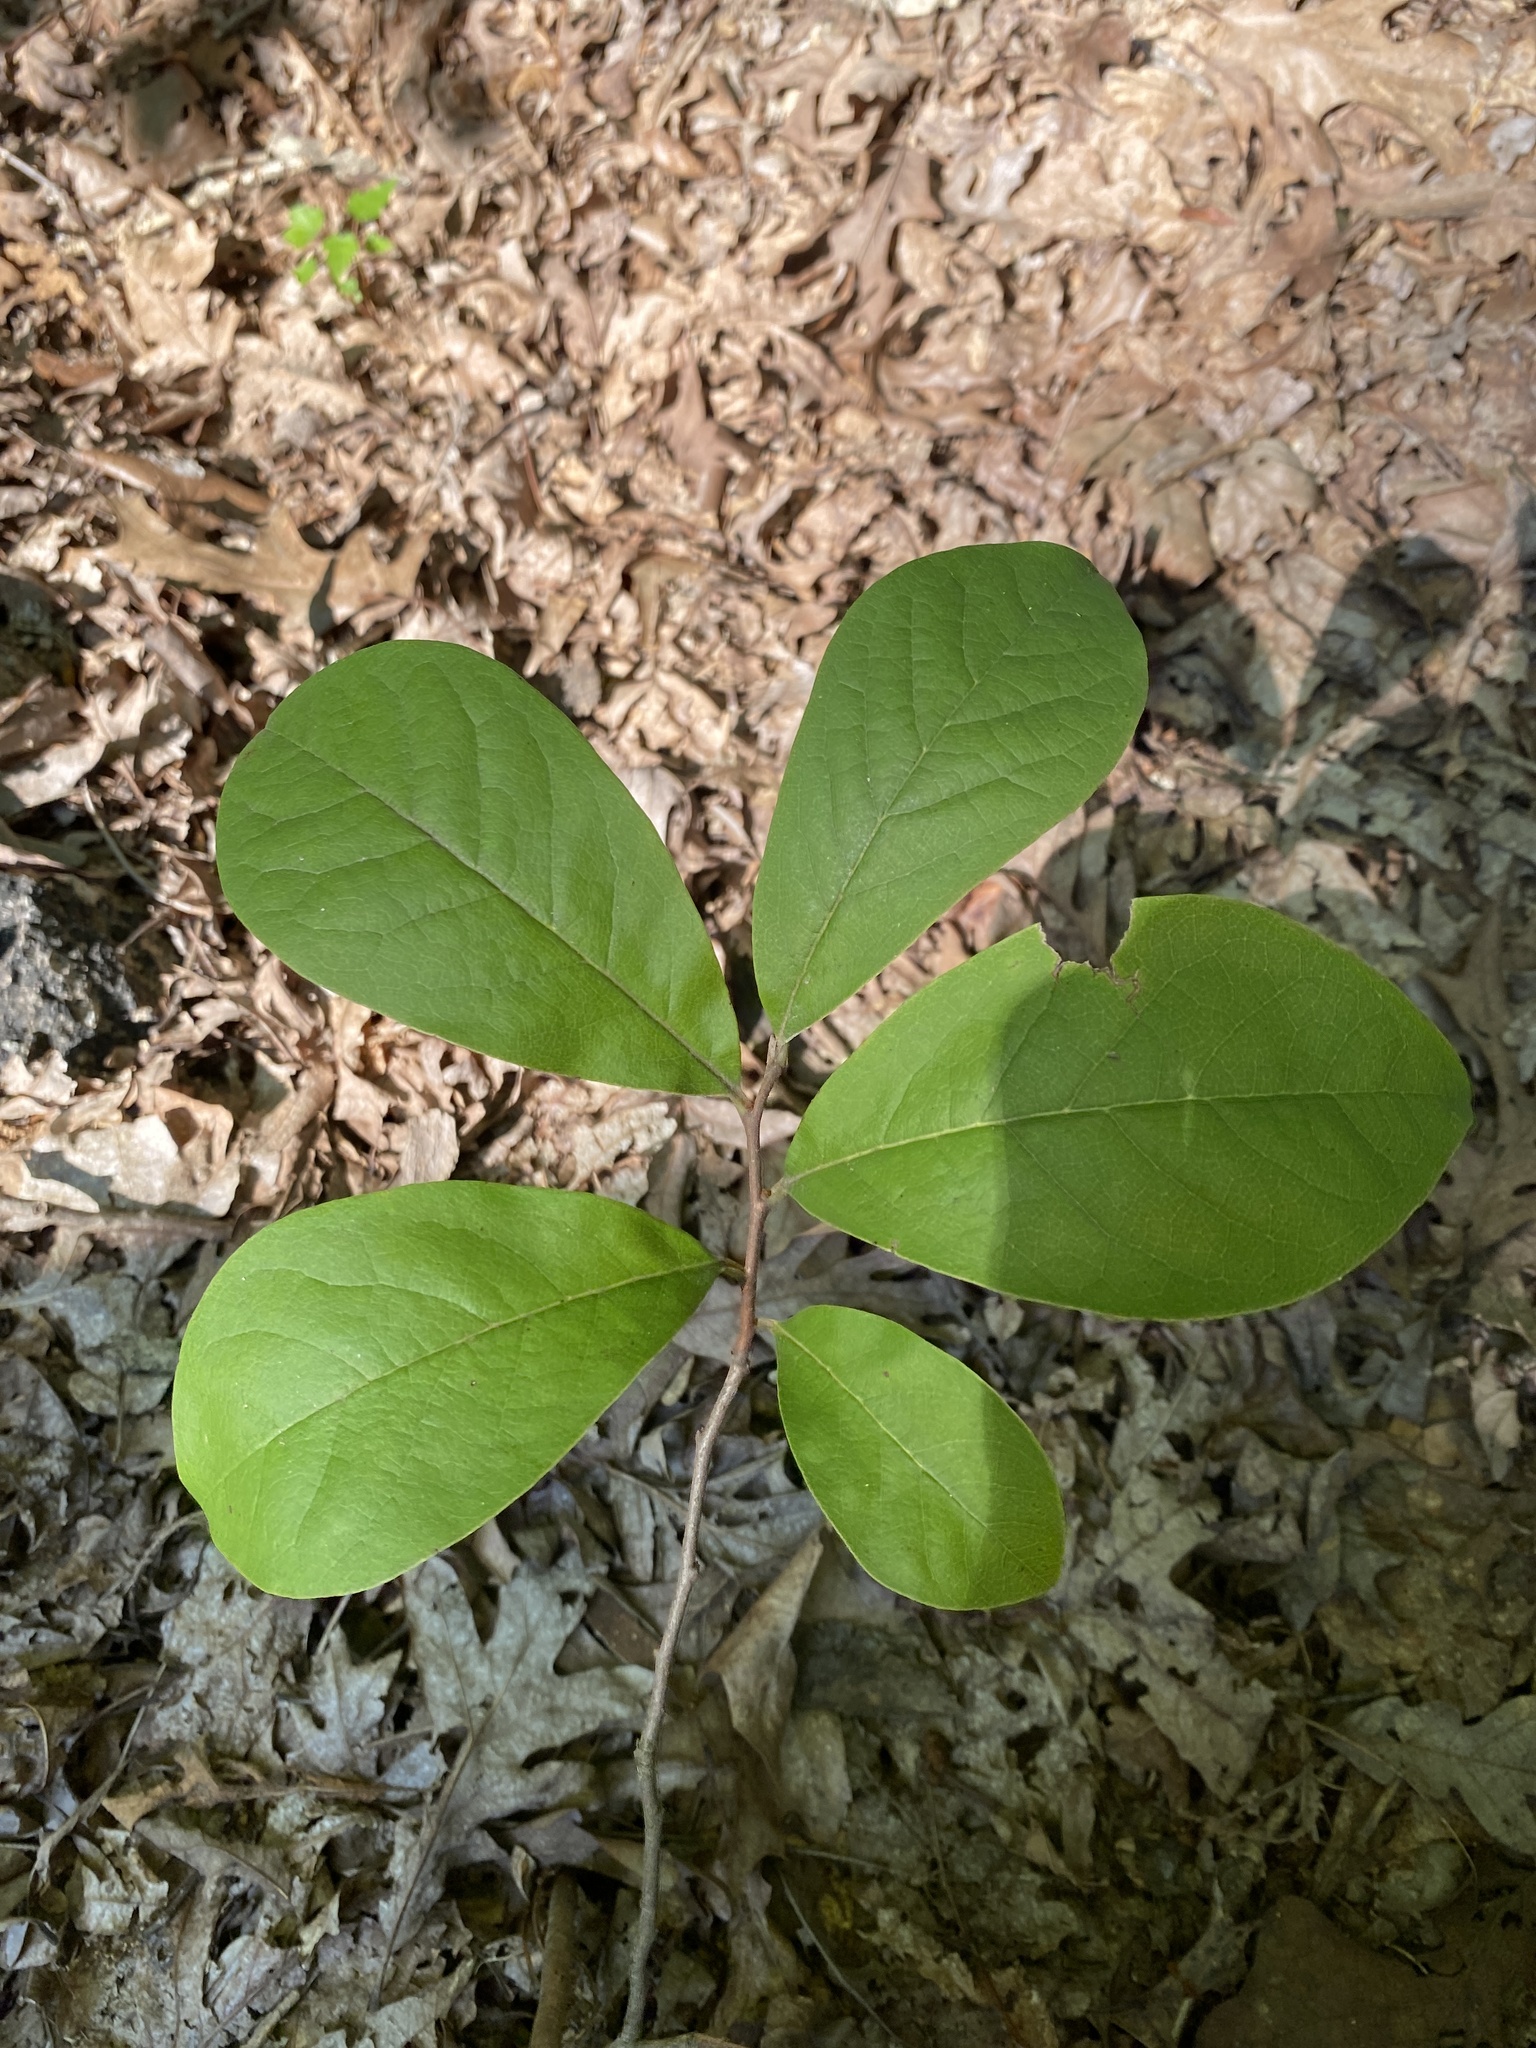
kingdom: Plantae
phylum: Tracheophyta
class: Magnoliopsida
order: Magnoliales
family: Annonaceae
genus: Asimina
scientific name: Asimina parviflora
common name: Dwarf pawpaw
